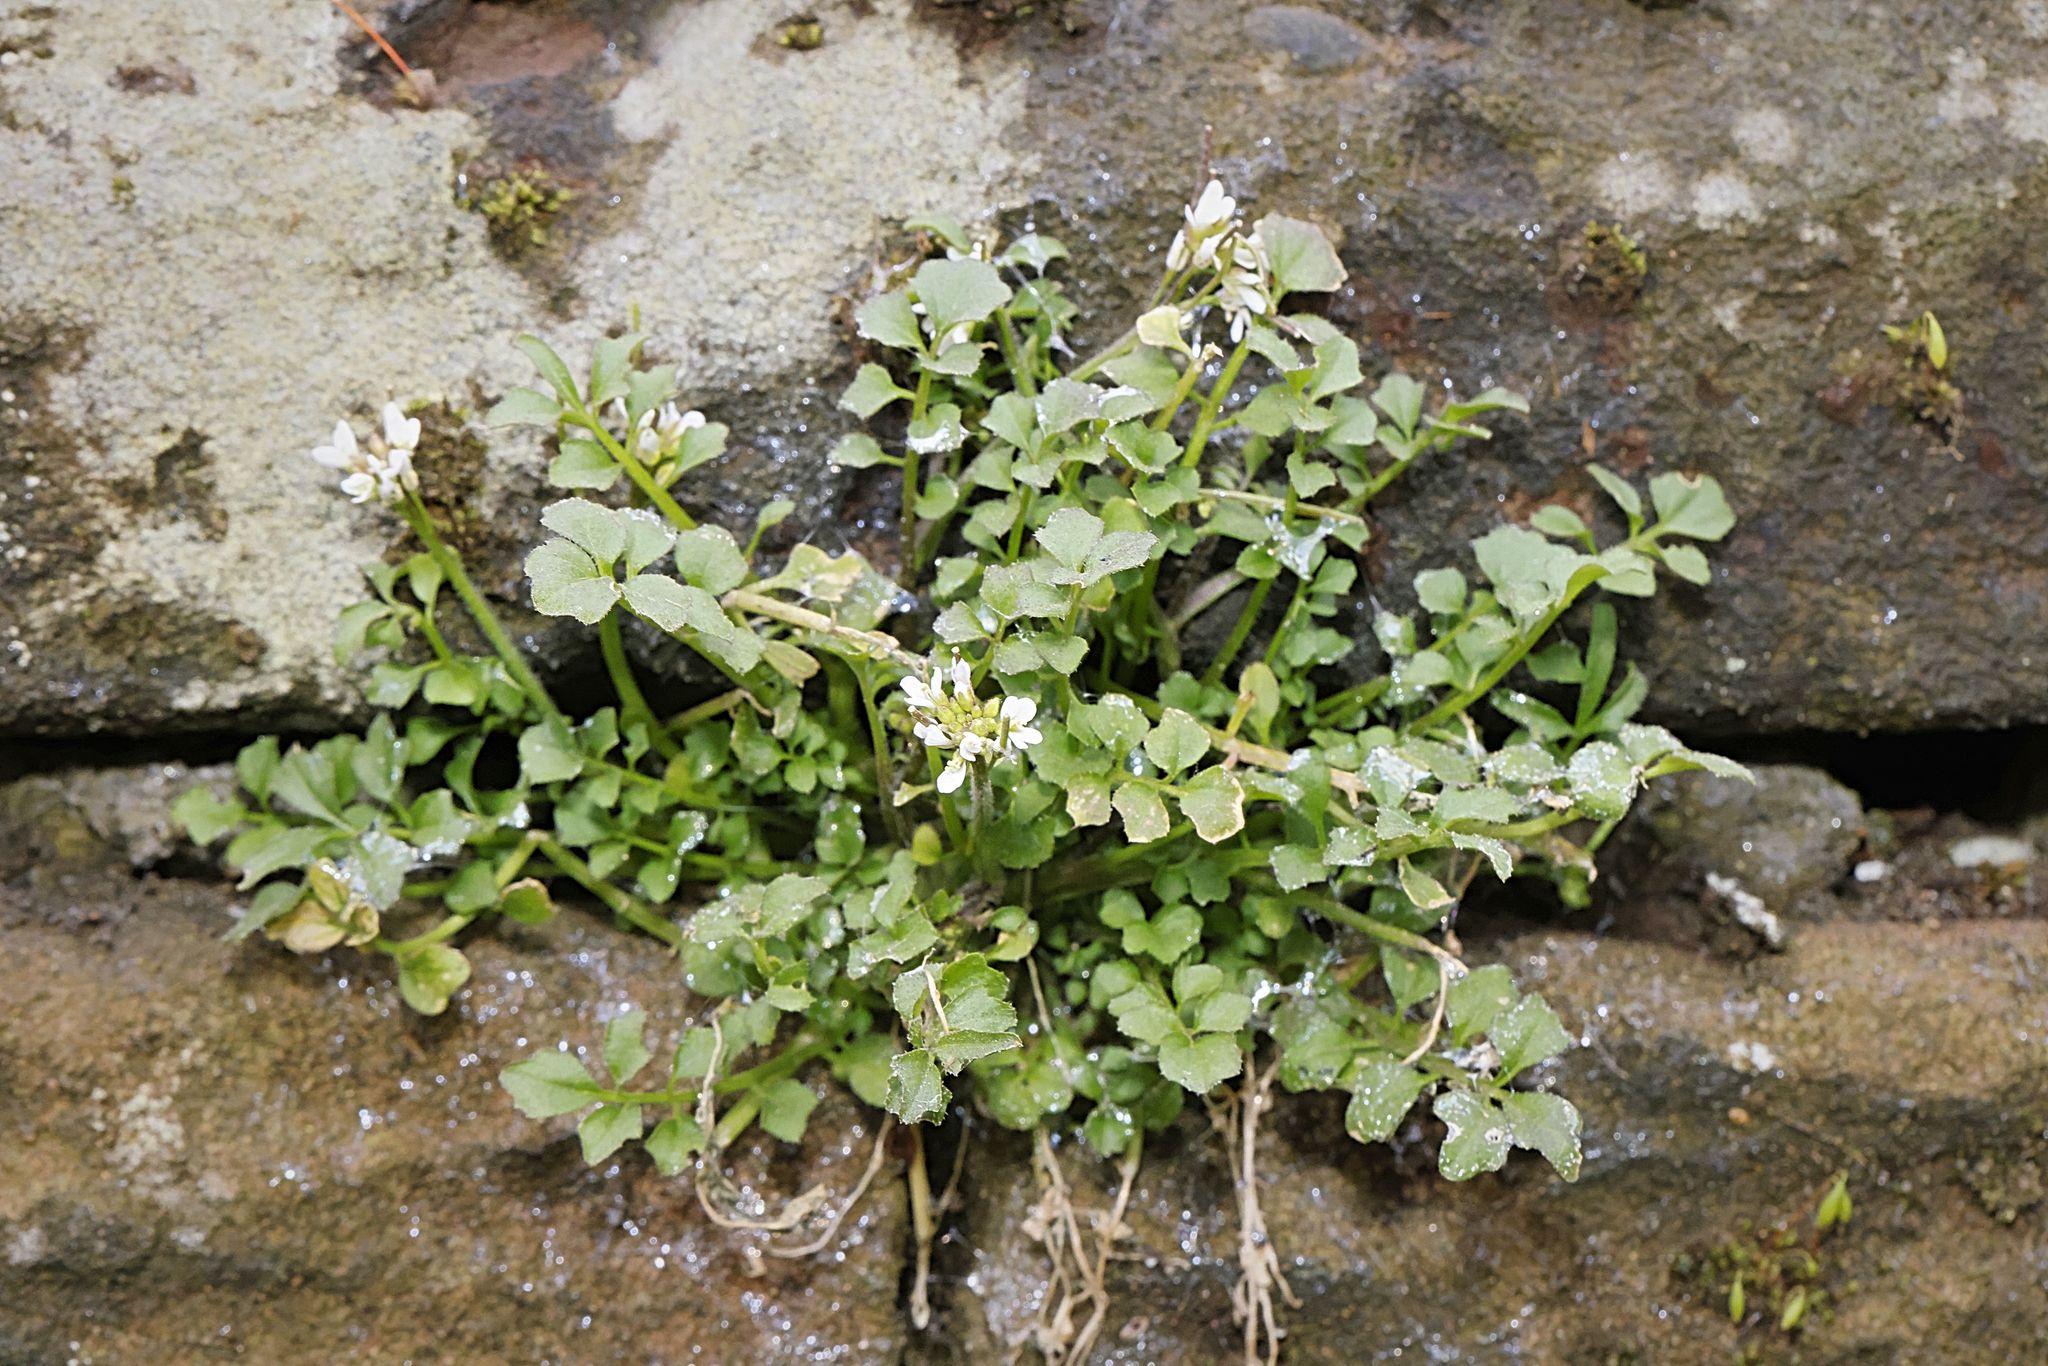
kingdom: Plantae
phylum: Tracheophyta
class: Magnoliopsida
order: Brassicales
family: Brassicaceae
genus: Cardamine
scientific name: Cardamine flexuosa
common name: Woodland bittercress
